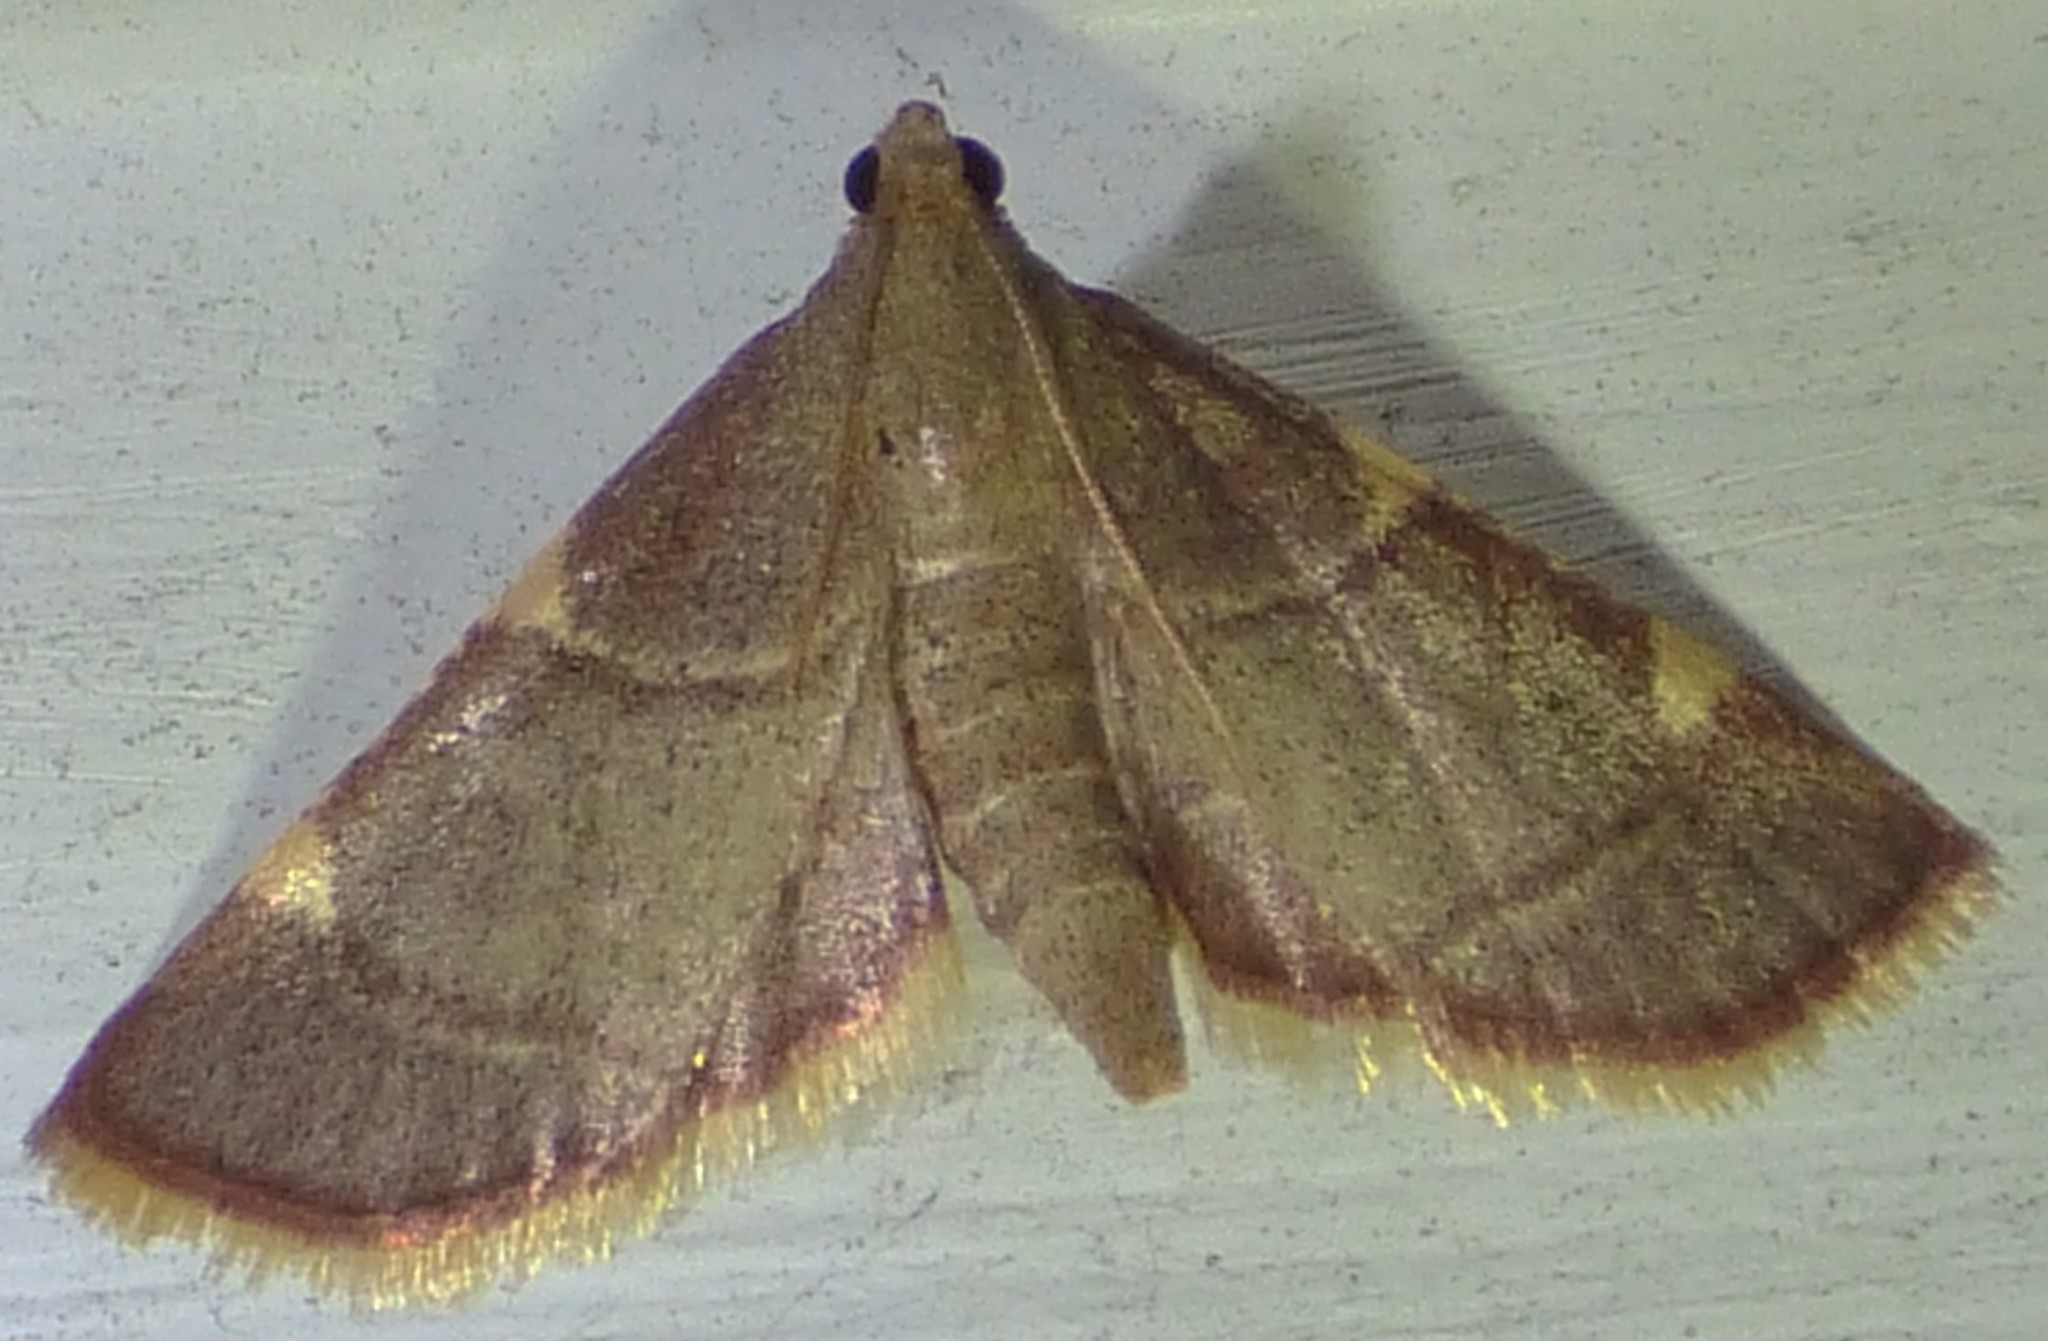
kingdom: Animalia
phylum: Arthropoda
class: Insecta
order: Lepidoptera
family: Pyralidae
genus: Hypsopygia
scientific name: Hypsopygia olinalis
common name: Yellow-fringed dolichomia moth
